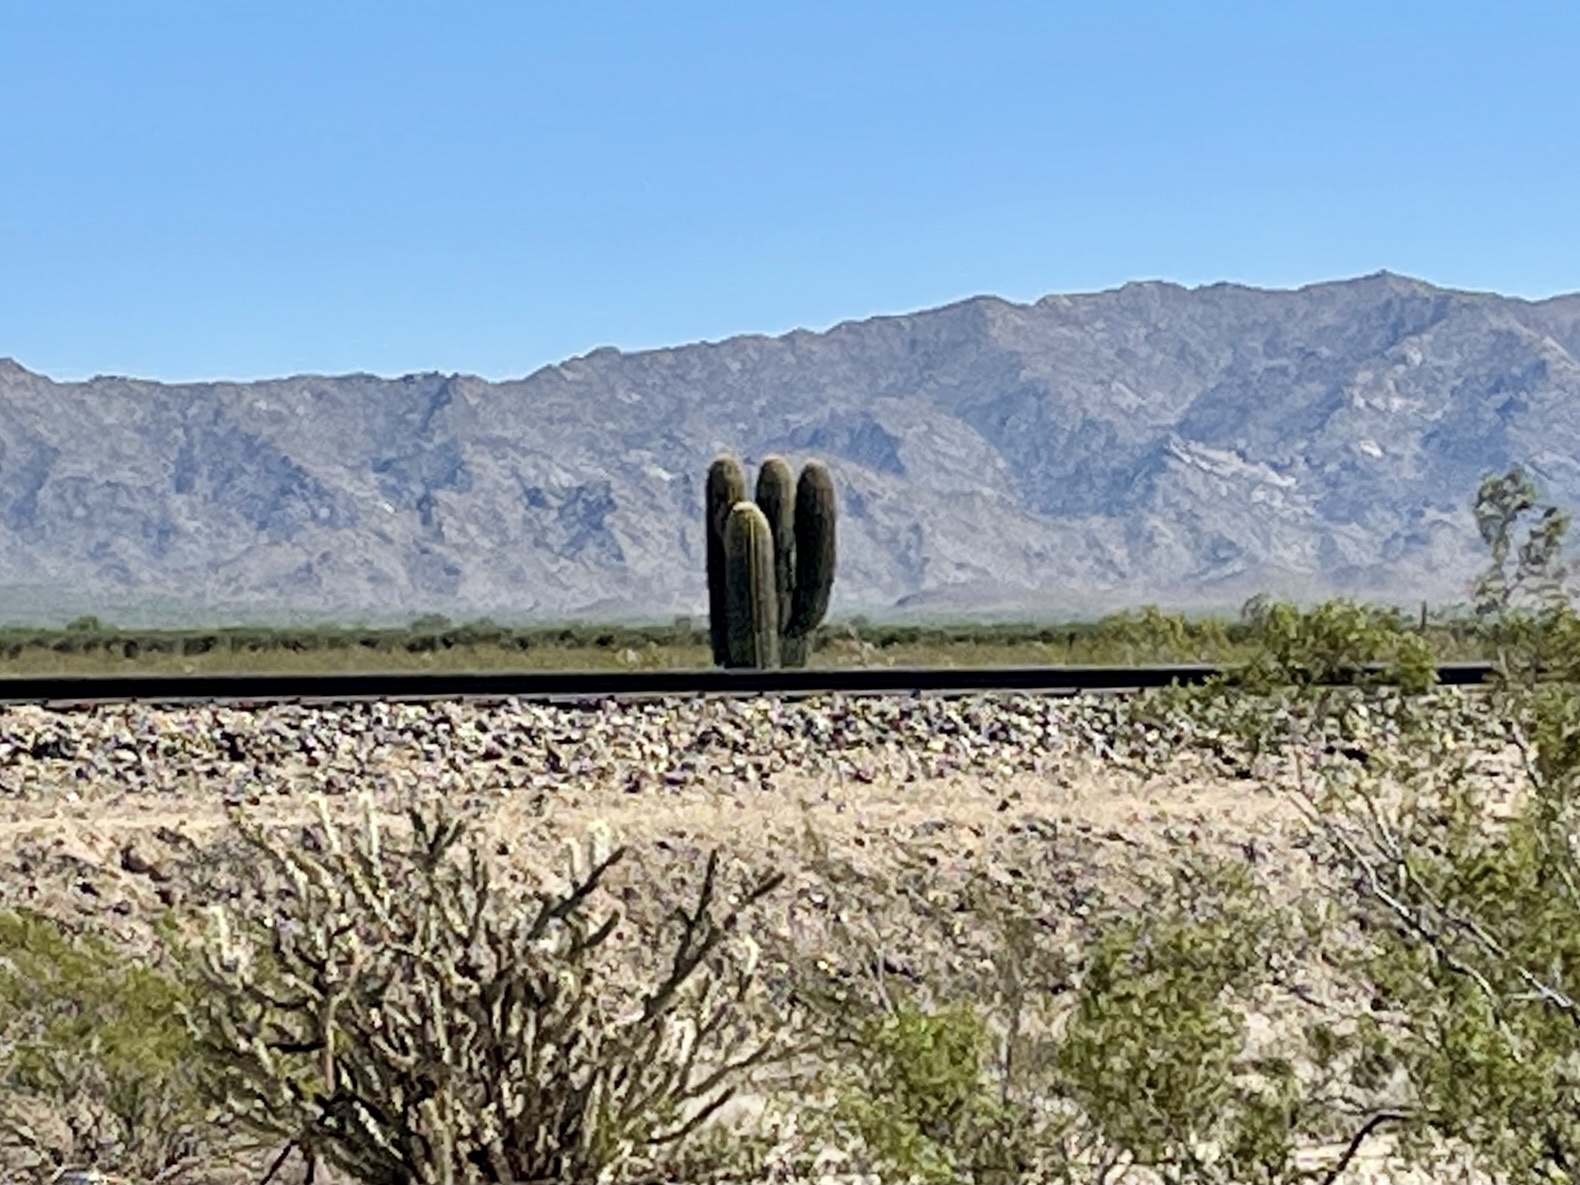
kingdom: Plantae
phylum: Tracheophyta
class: Magnoliopsida
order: Caryophyllales
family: Cactaceae
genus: Carnegiea
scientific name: Carnegiea gigantea
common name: Saguaro
